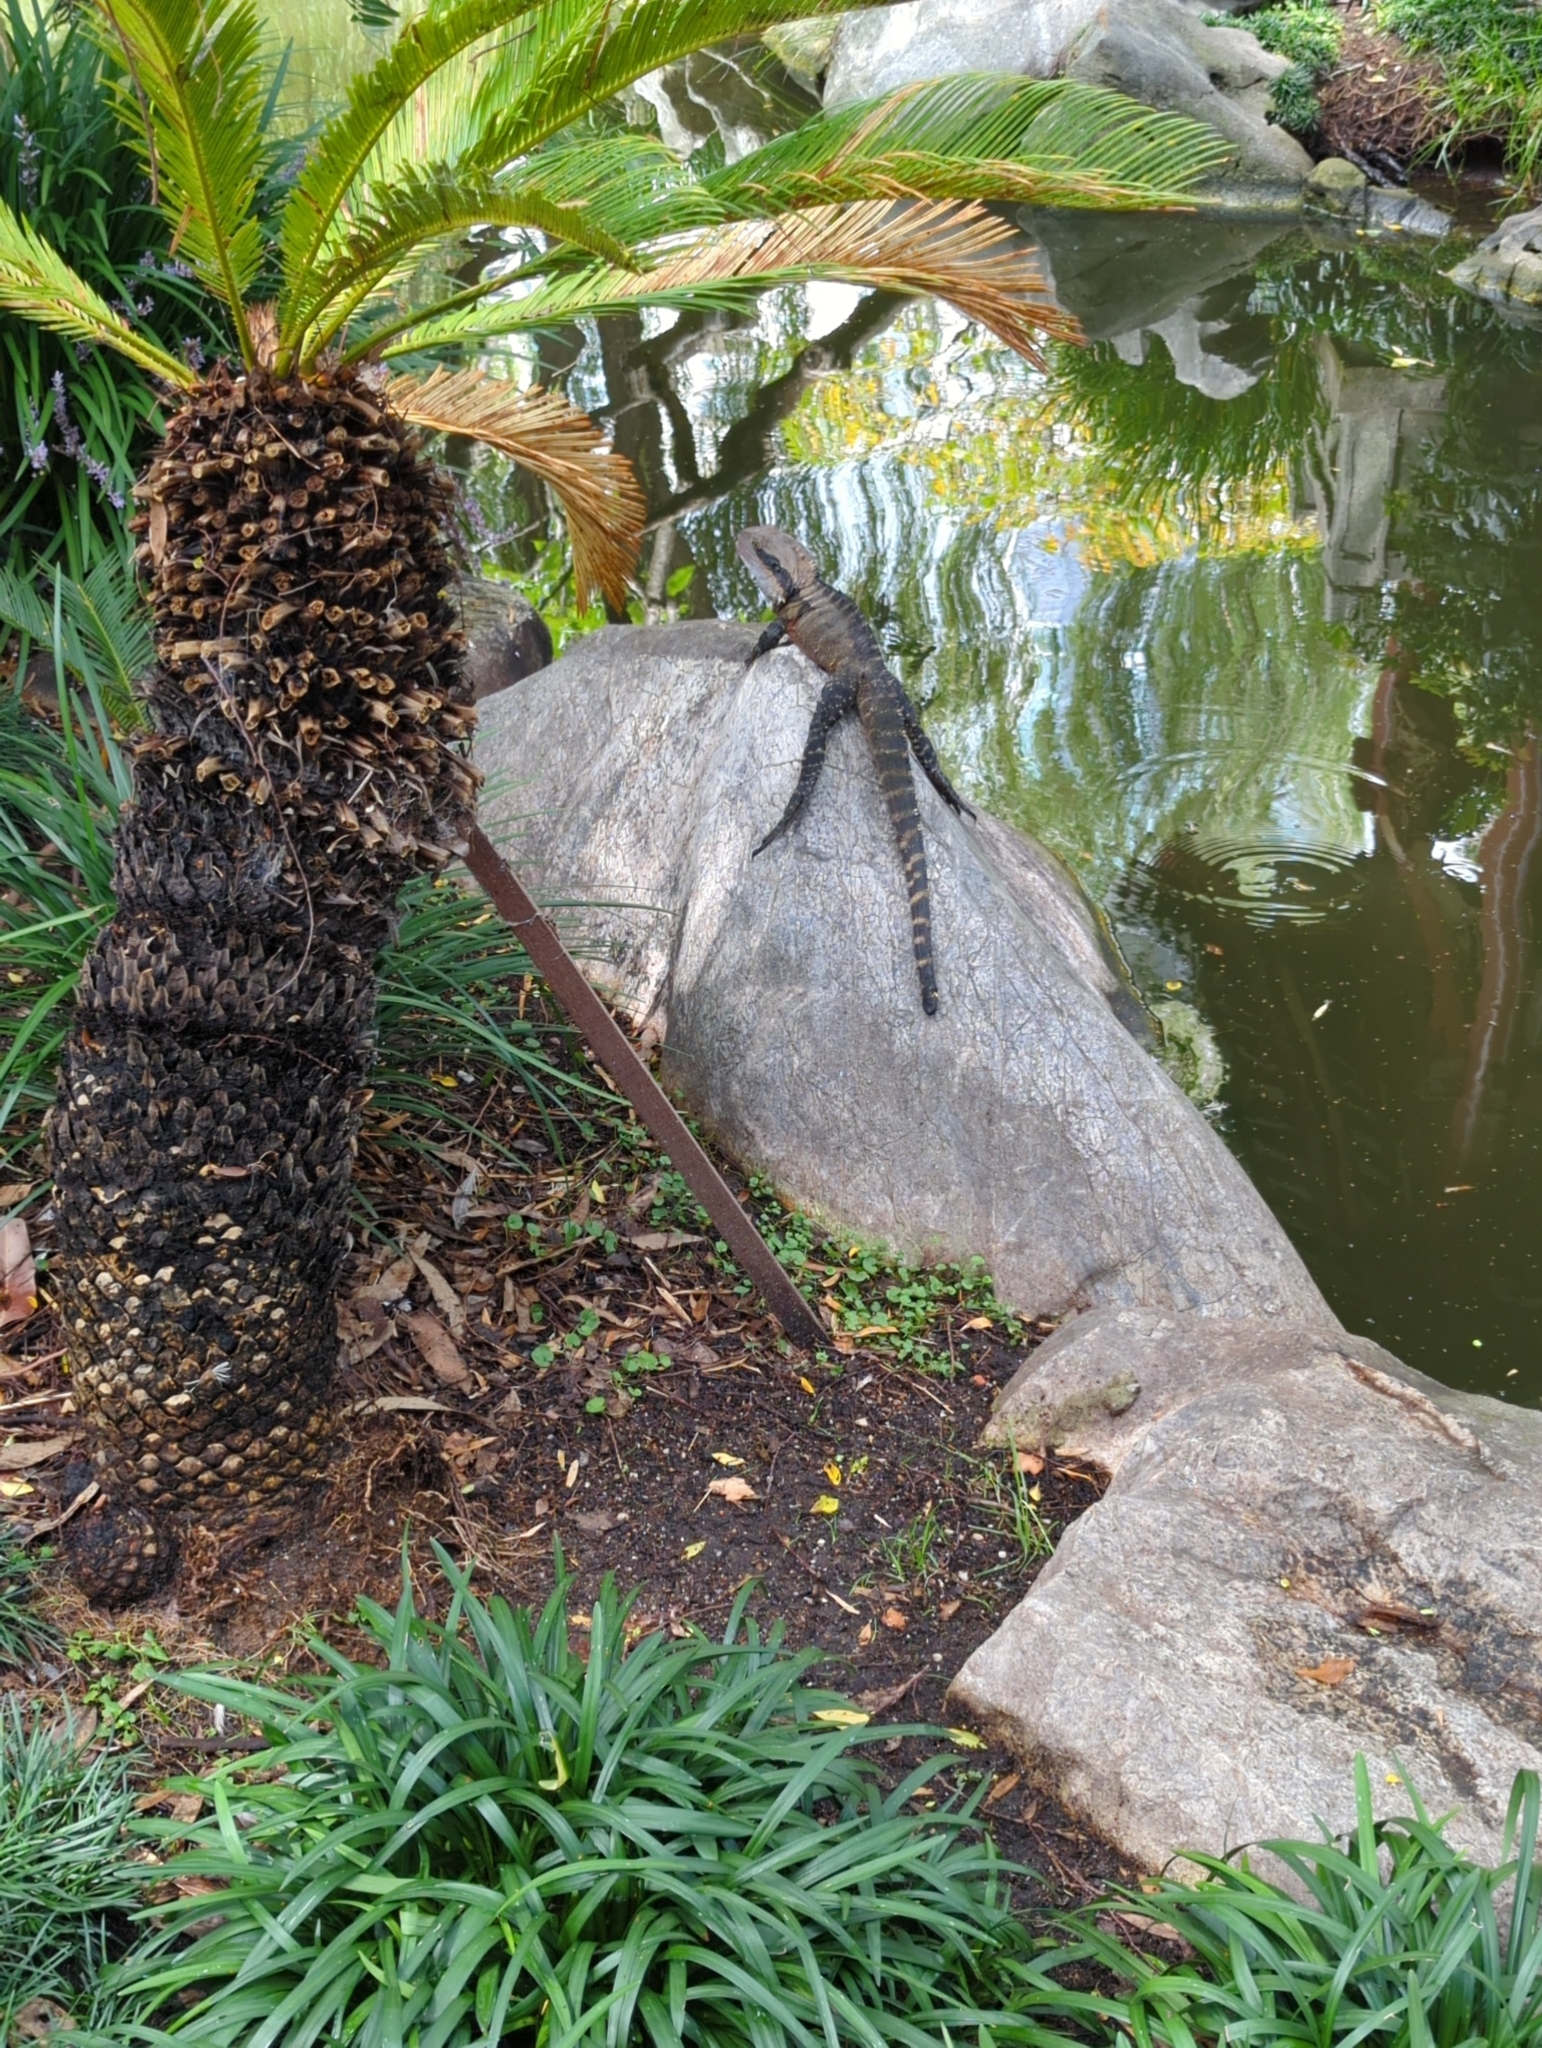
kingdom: Animalia
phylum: Chordata
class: Squamata
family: Agamidae
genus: Intellagama
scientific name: Intellagama lesueurii
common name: Eastern water dragon
